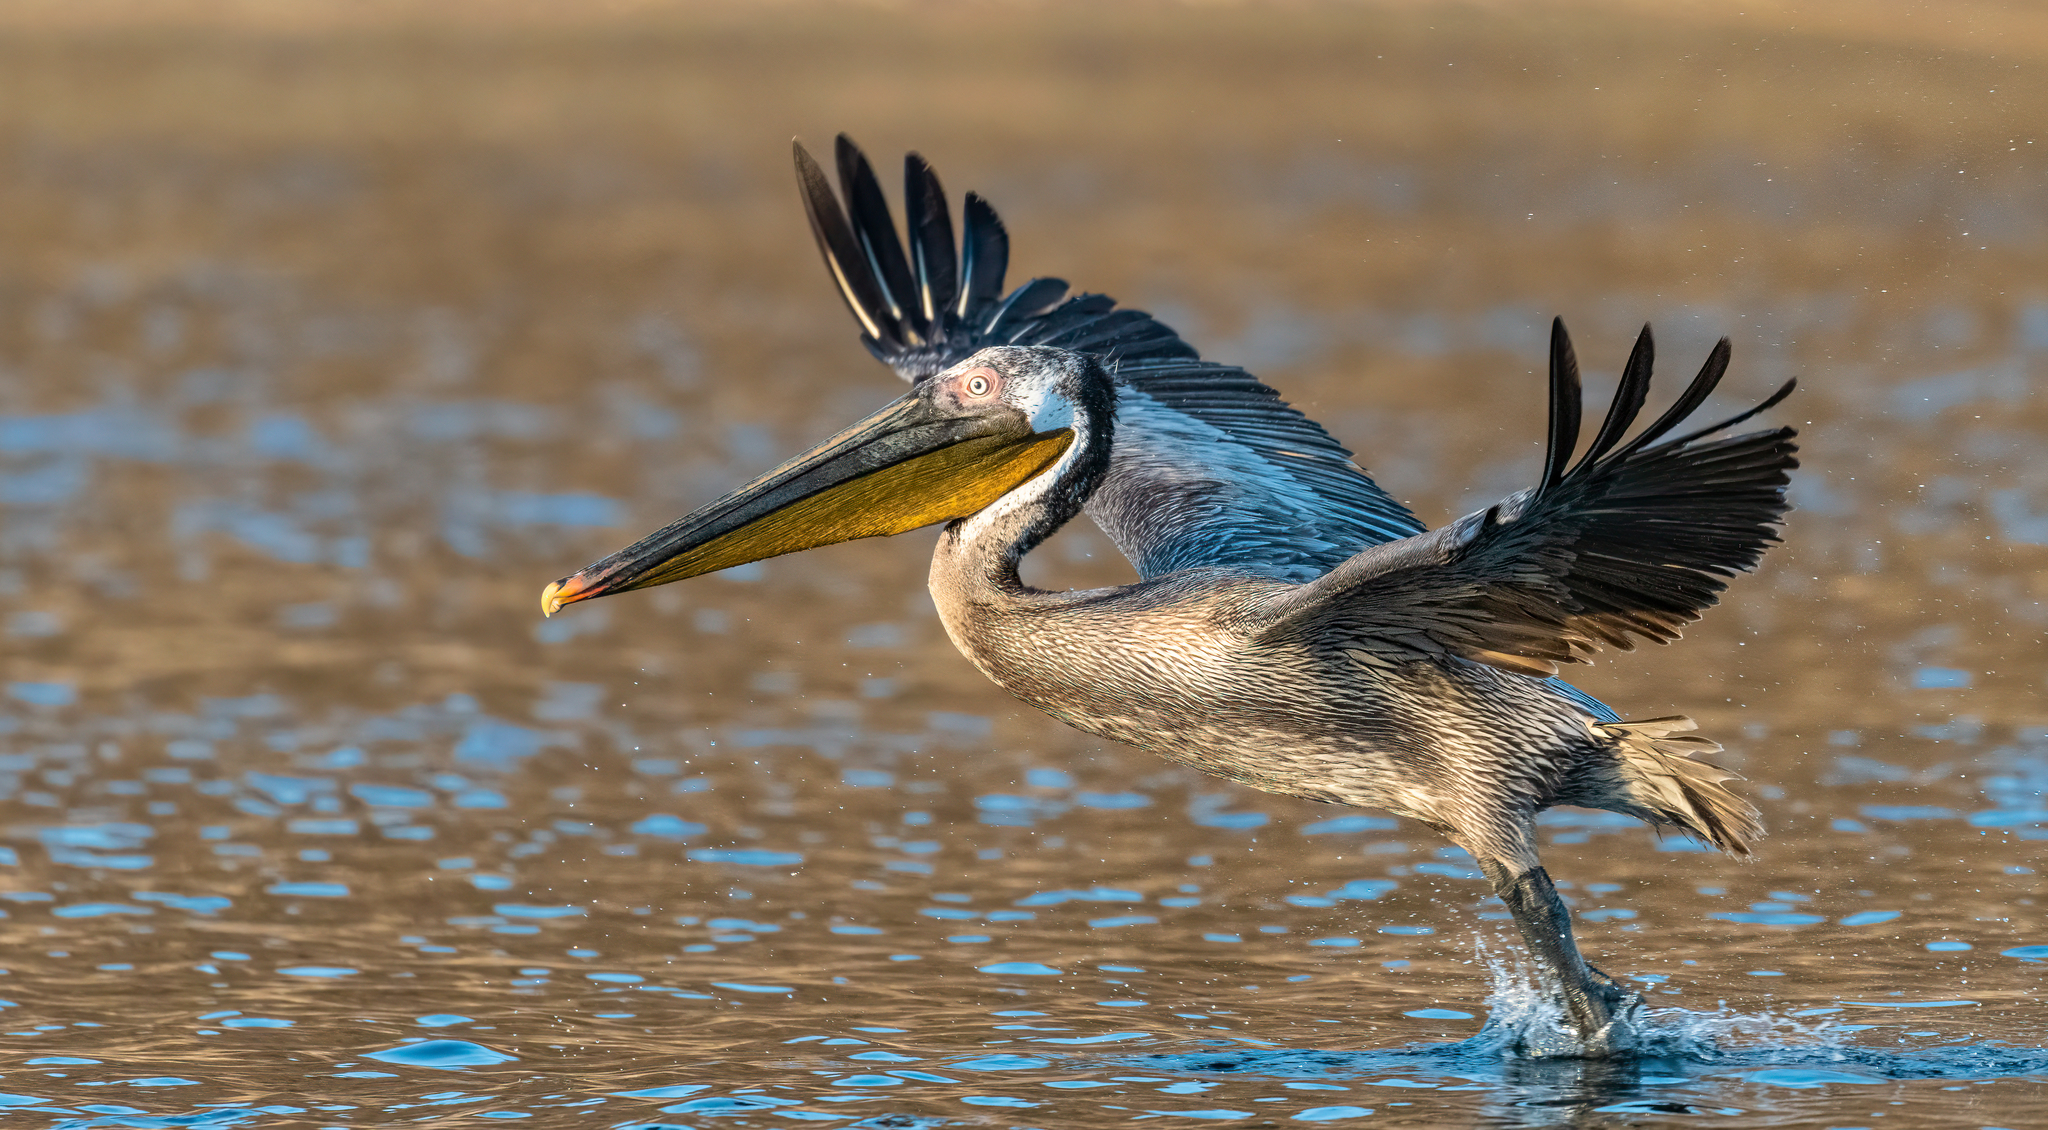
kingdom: Animalia
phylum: Chordata
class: Aves
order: Pelecaniformes
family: Pelecanidae
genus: Pelecanus
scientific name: Pelecanus occidentalis
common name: Brown pelican
